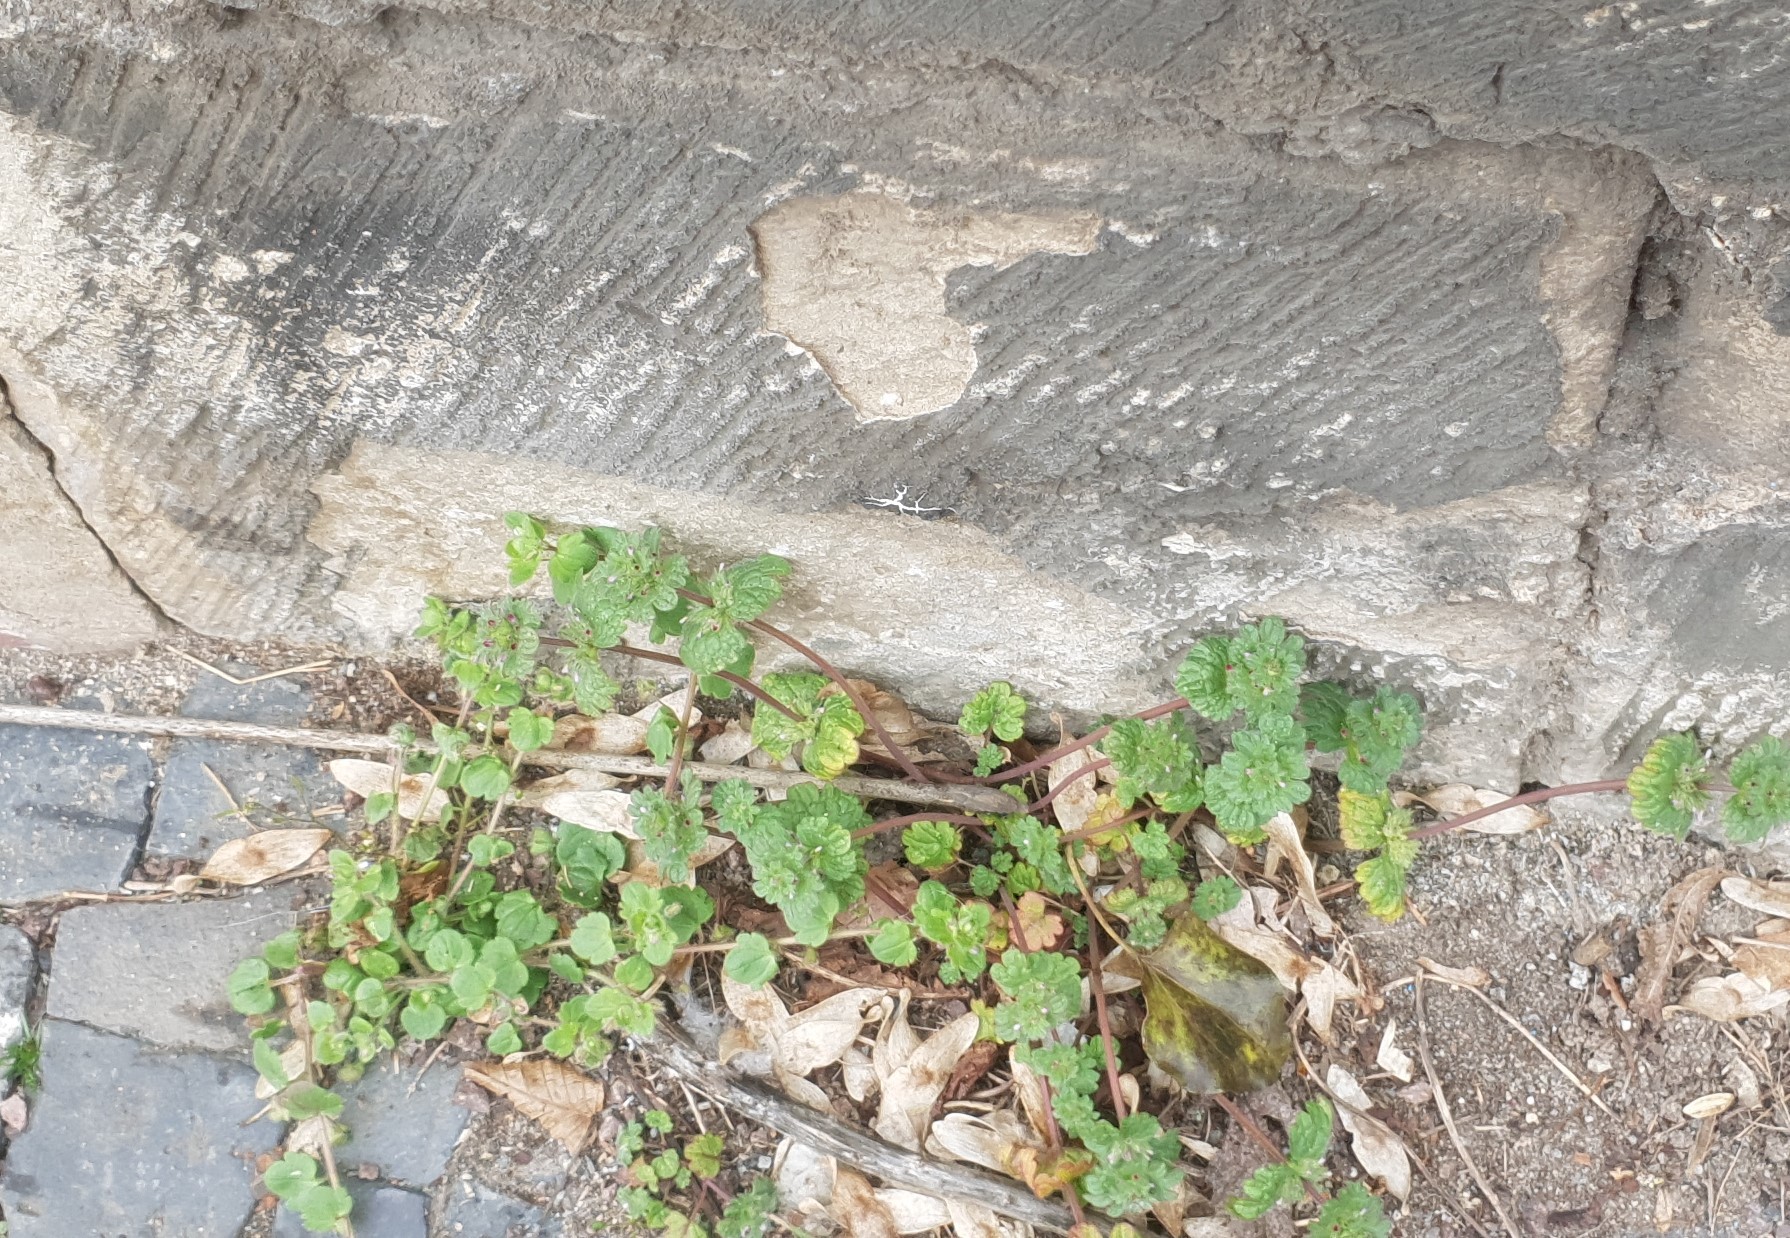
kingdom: Plantae
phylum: Tracheophyta
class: Magnoliopsida
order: Lamiales
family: Lamiaceae
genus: Lamium
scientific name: Lamium amplexicaule
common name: Henbit dead-nettle
